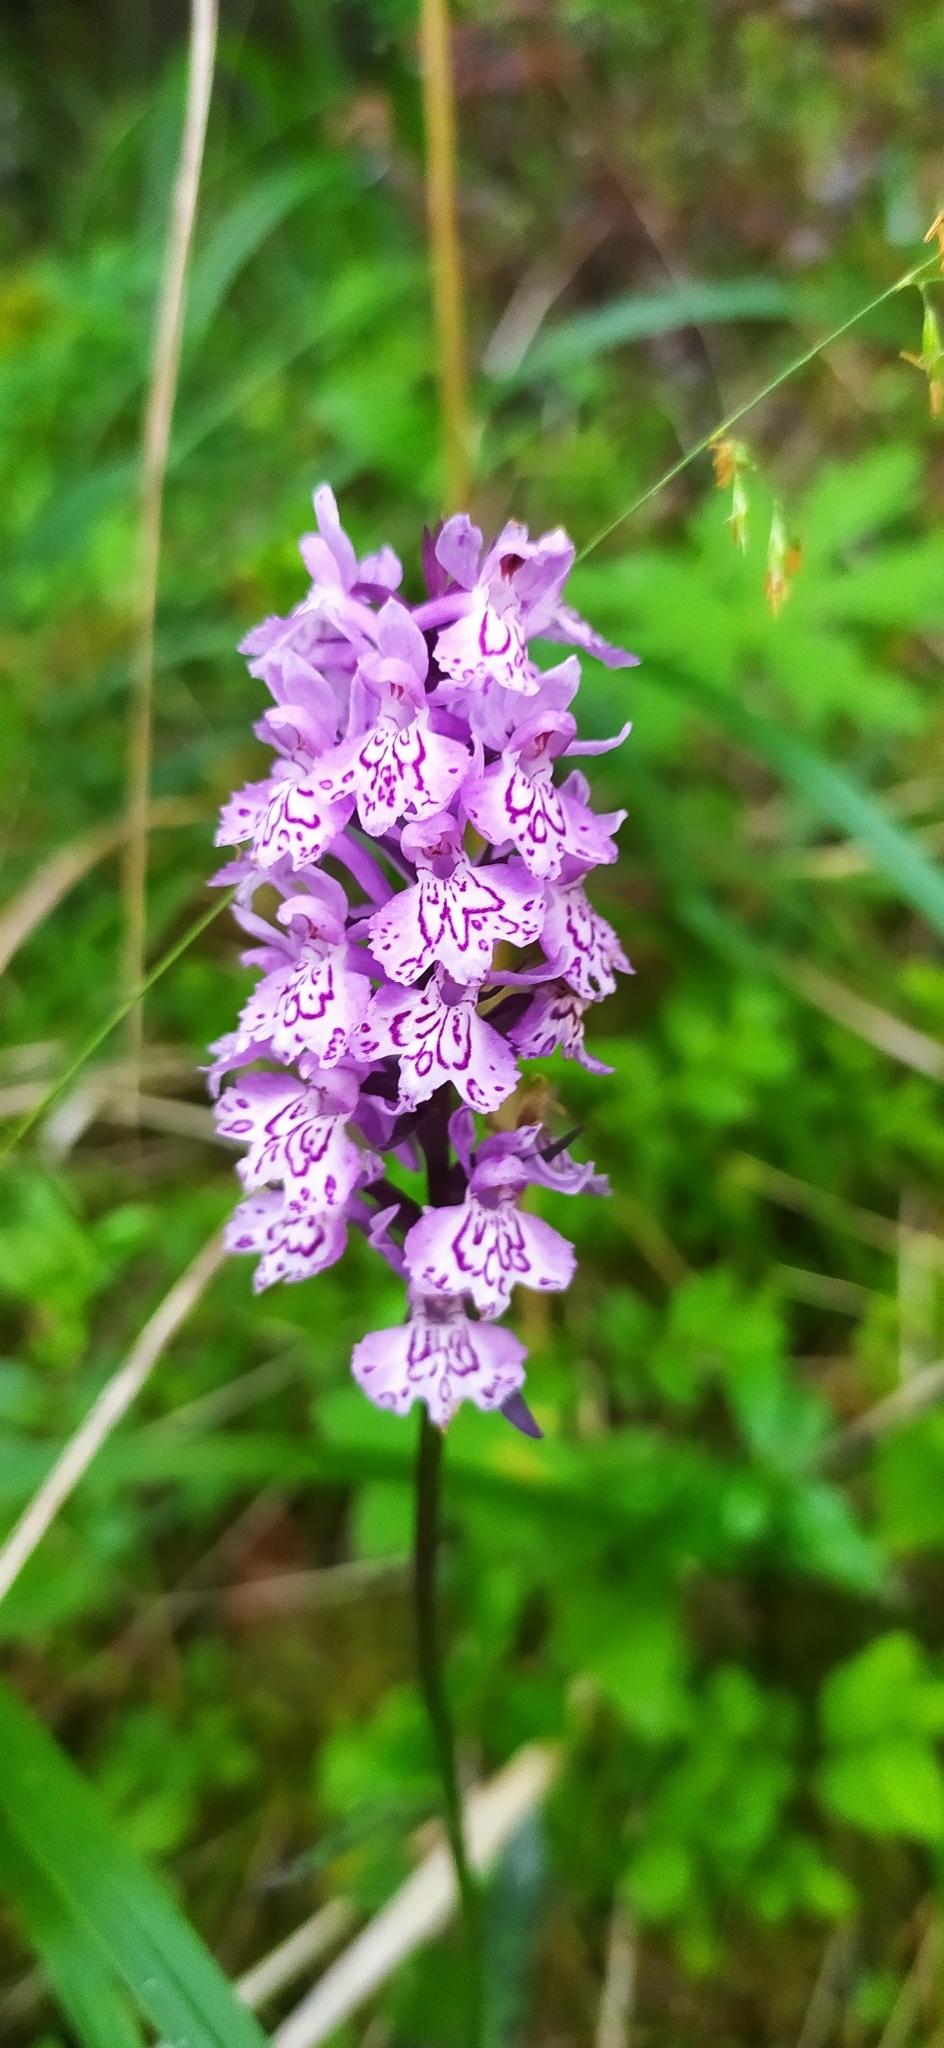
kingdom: Plantae
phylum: Tracheophyta
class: Liliopsida
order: Asparagales
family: Orchidaceae
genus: Dactylorhiza
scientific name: Dactylorhiza maculata
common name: Heath spotted-orchid
